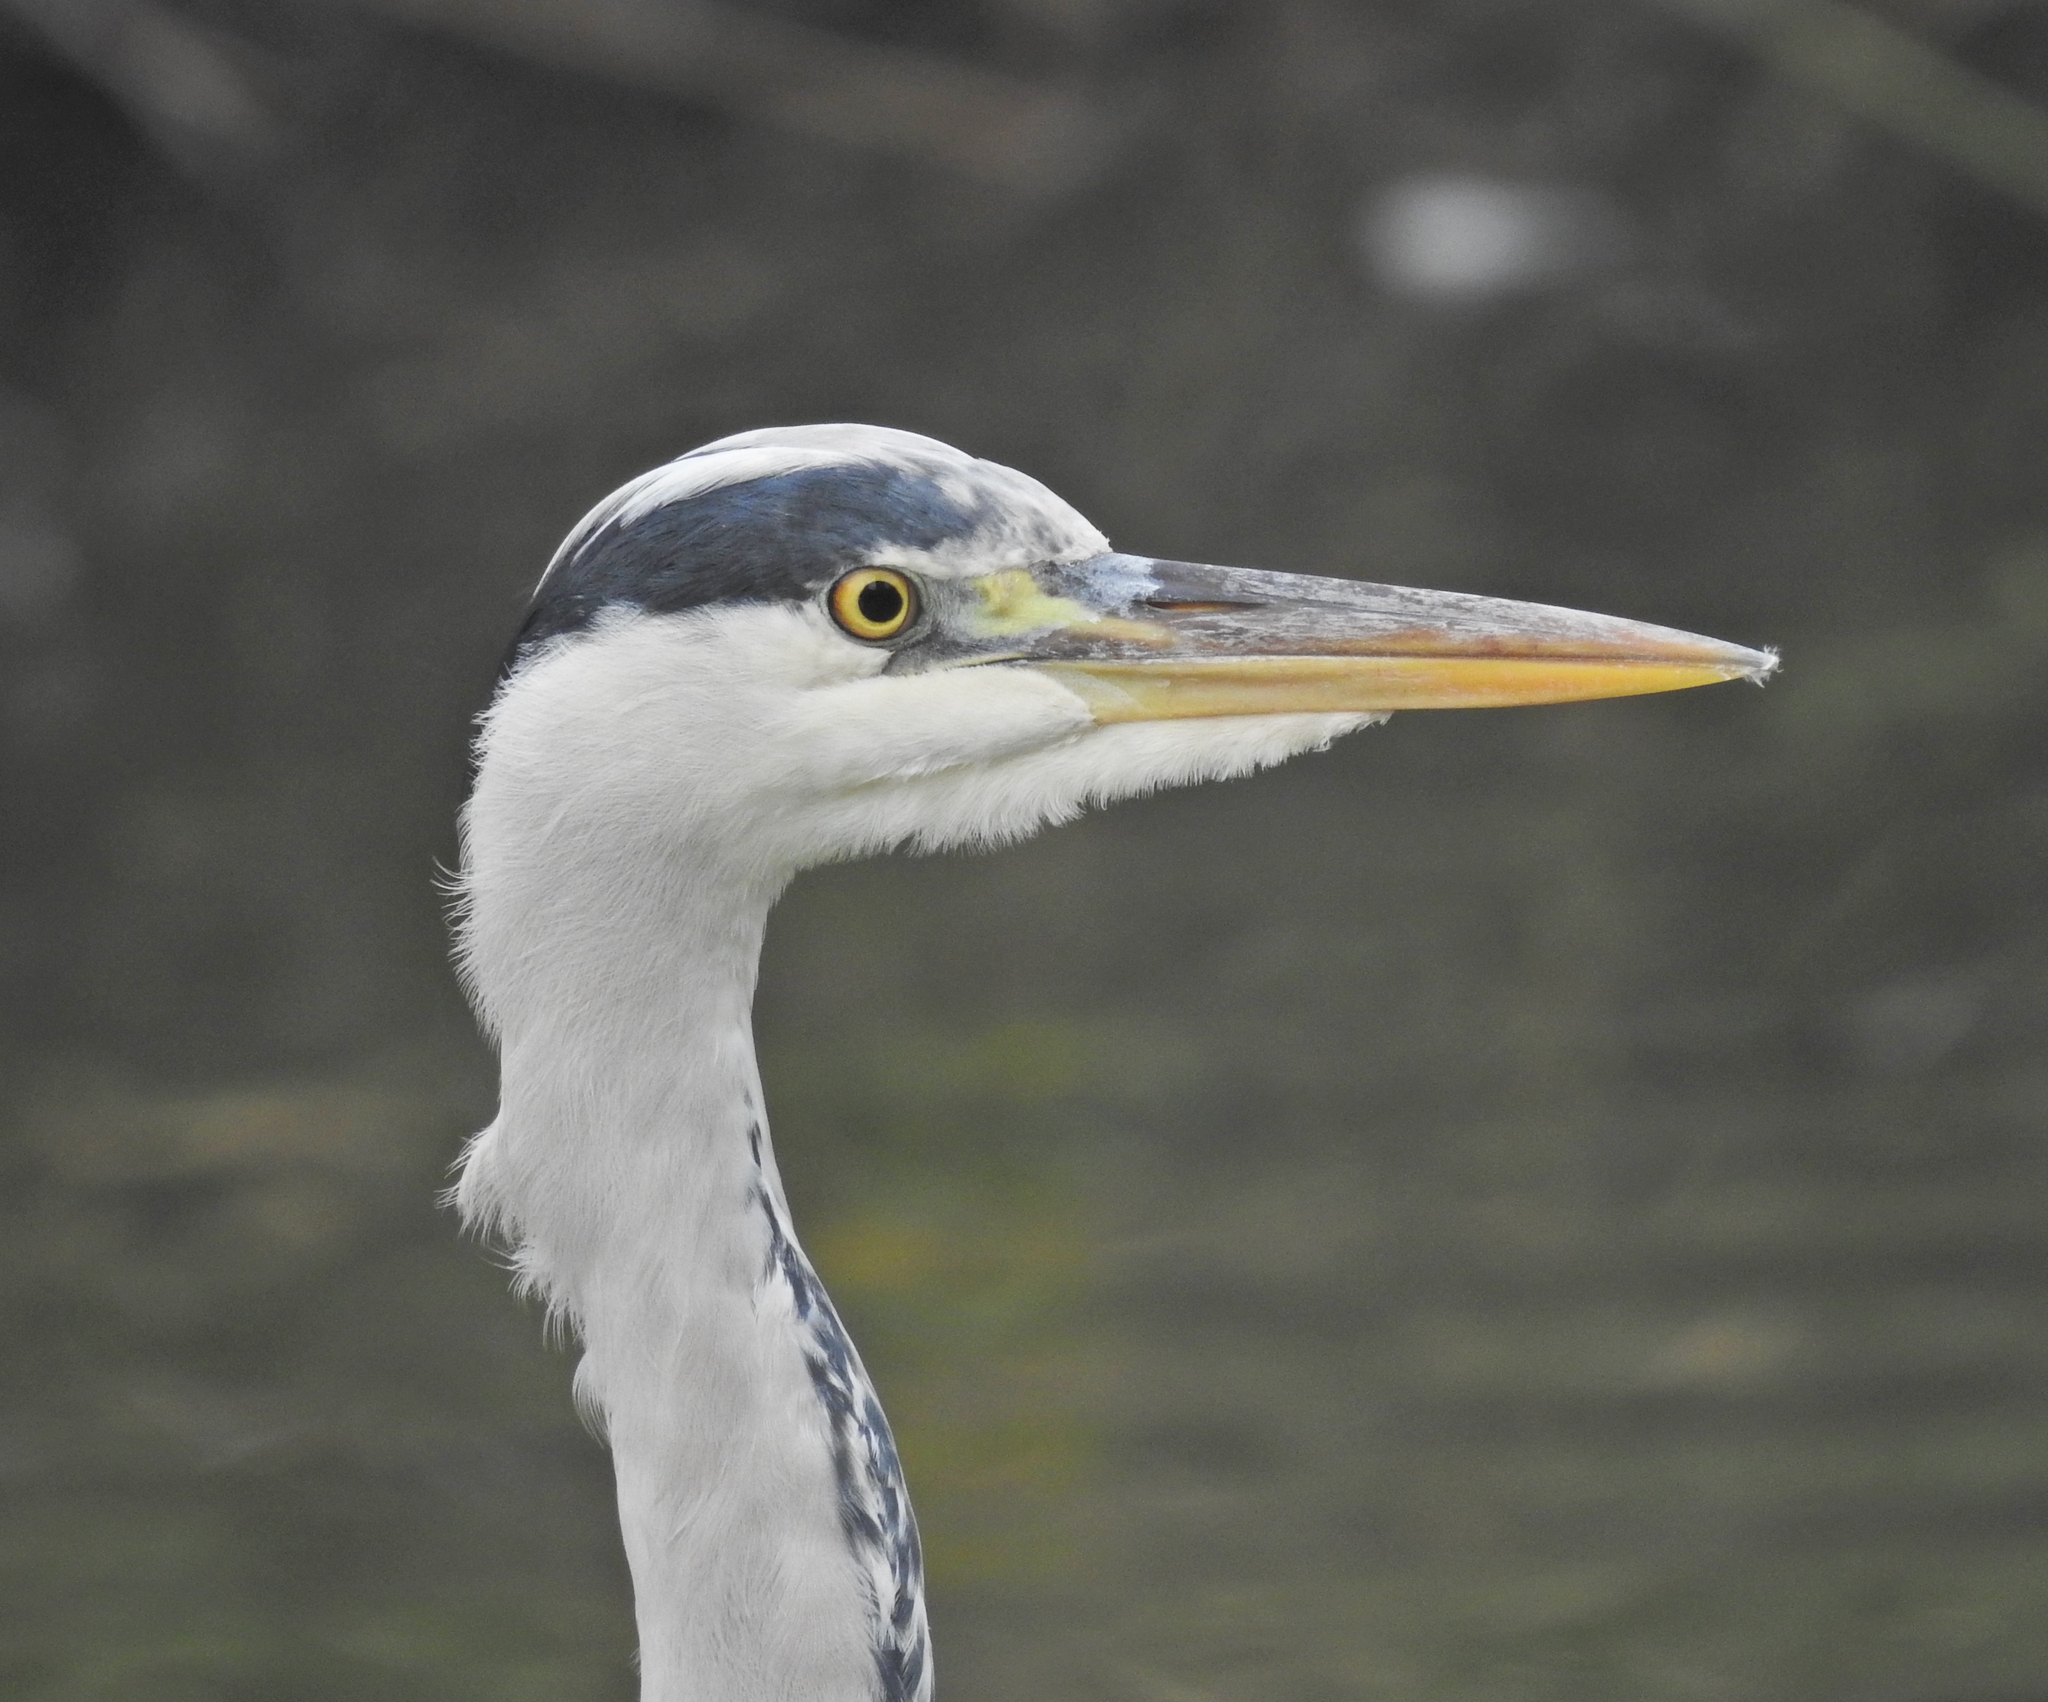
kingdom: Animalia
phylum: Chordata
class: Aves
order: Pelecaniformes
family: Ardeidae
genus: Ardea
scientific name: Ardea cinerea
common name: Grey heron
